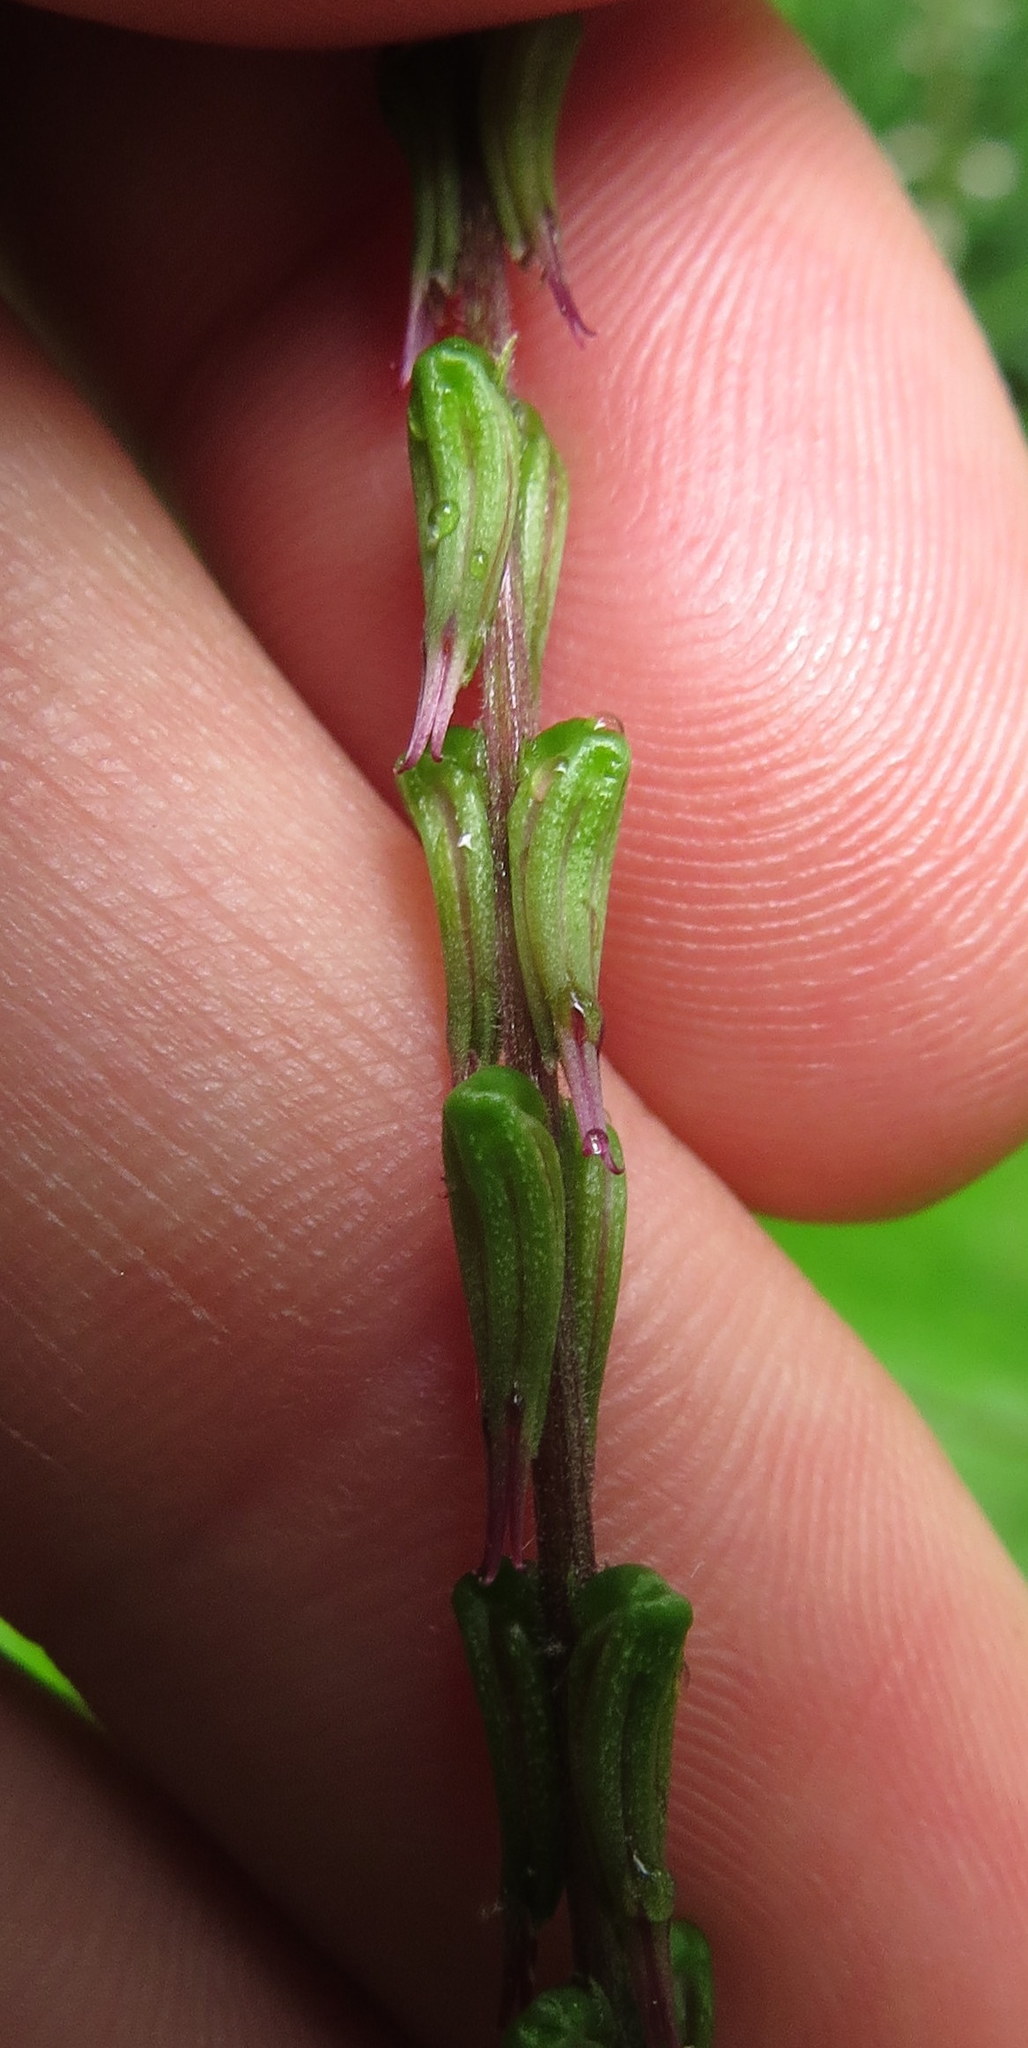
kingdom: Plantae
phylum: Tracheophyta
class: Magnoliopsida
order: Lamiales
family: Phrymaceae
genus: Phryma
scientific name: Phryma leptostachya
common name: American lopseed
